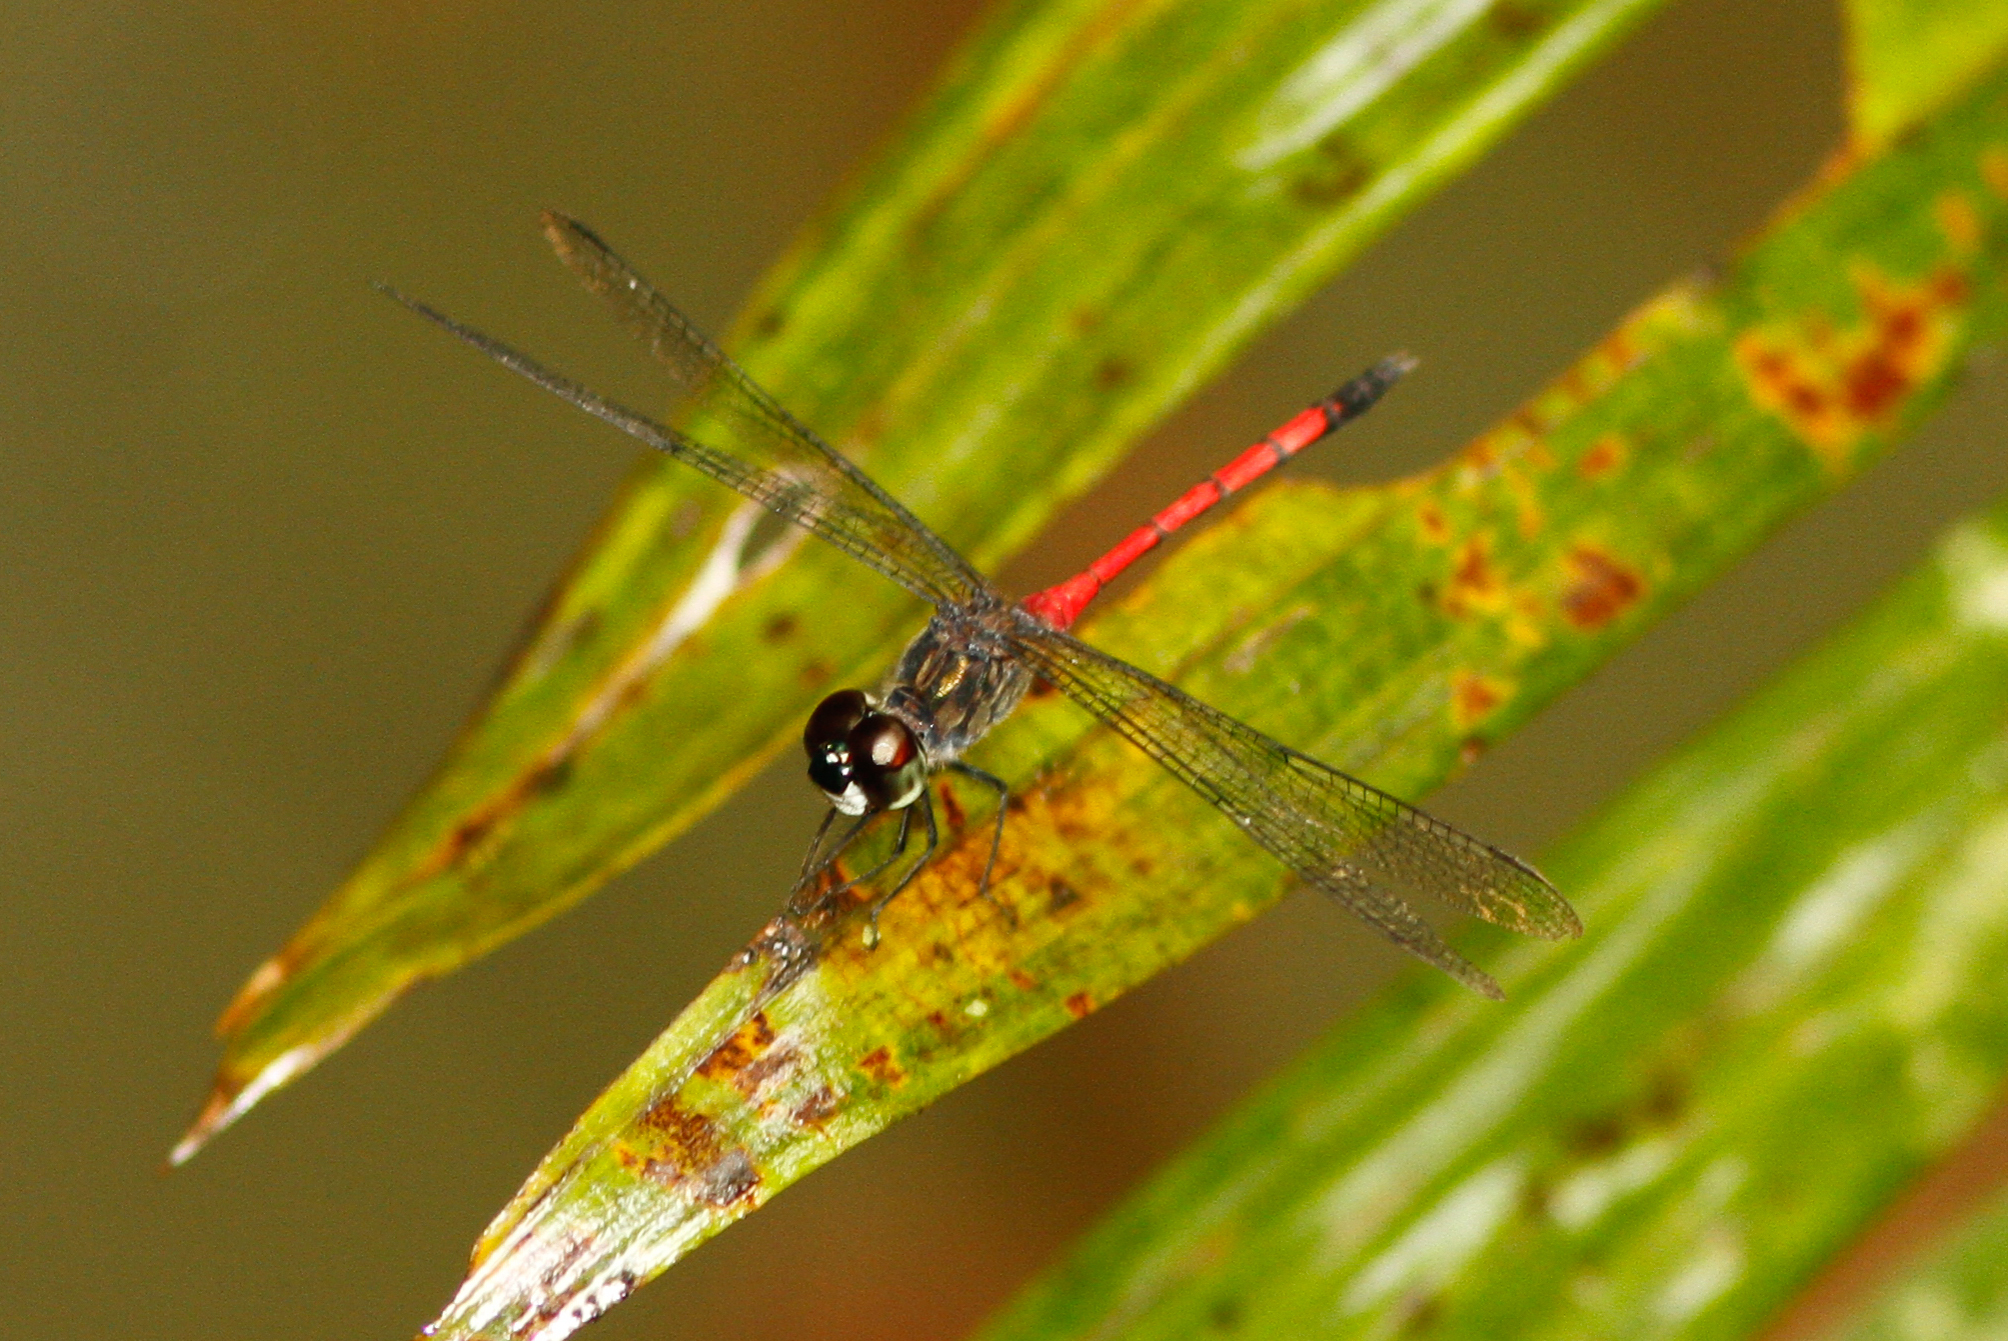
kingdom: Animalia
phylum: Arthropoda
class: Insecta
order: Odonata
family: Libellulidae
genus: Agrionoptera
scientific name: Agrionoptera insignis
